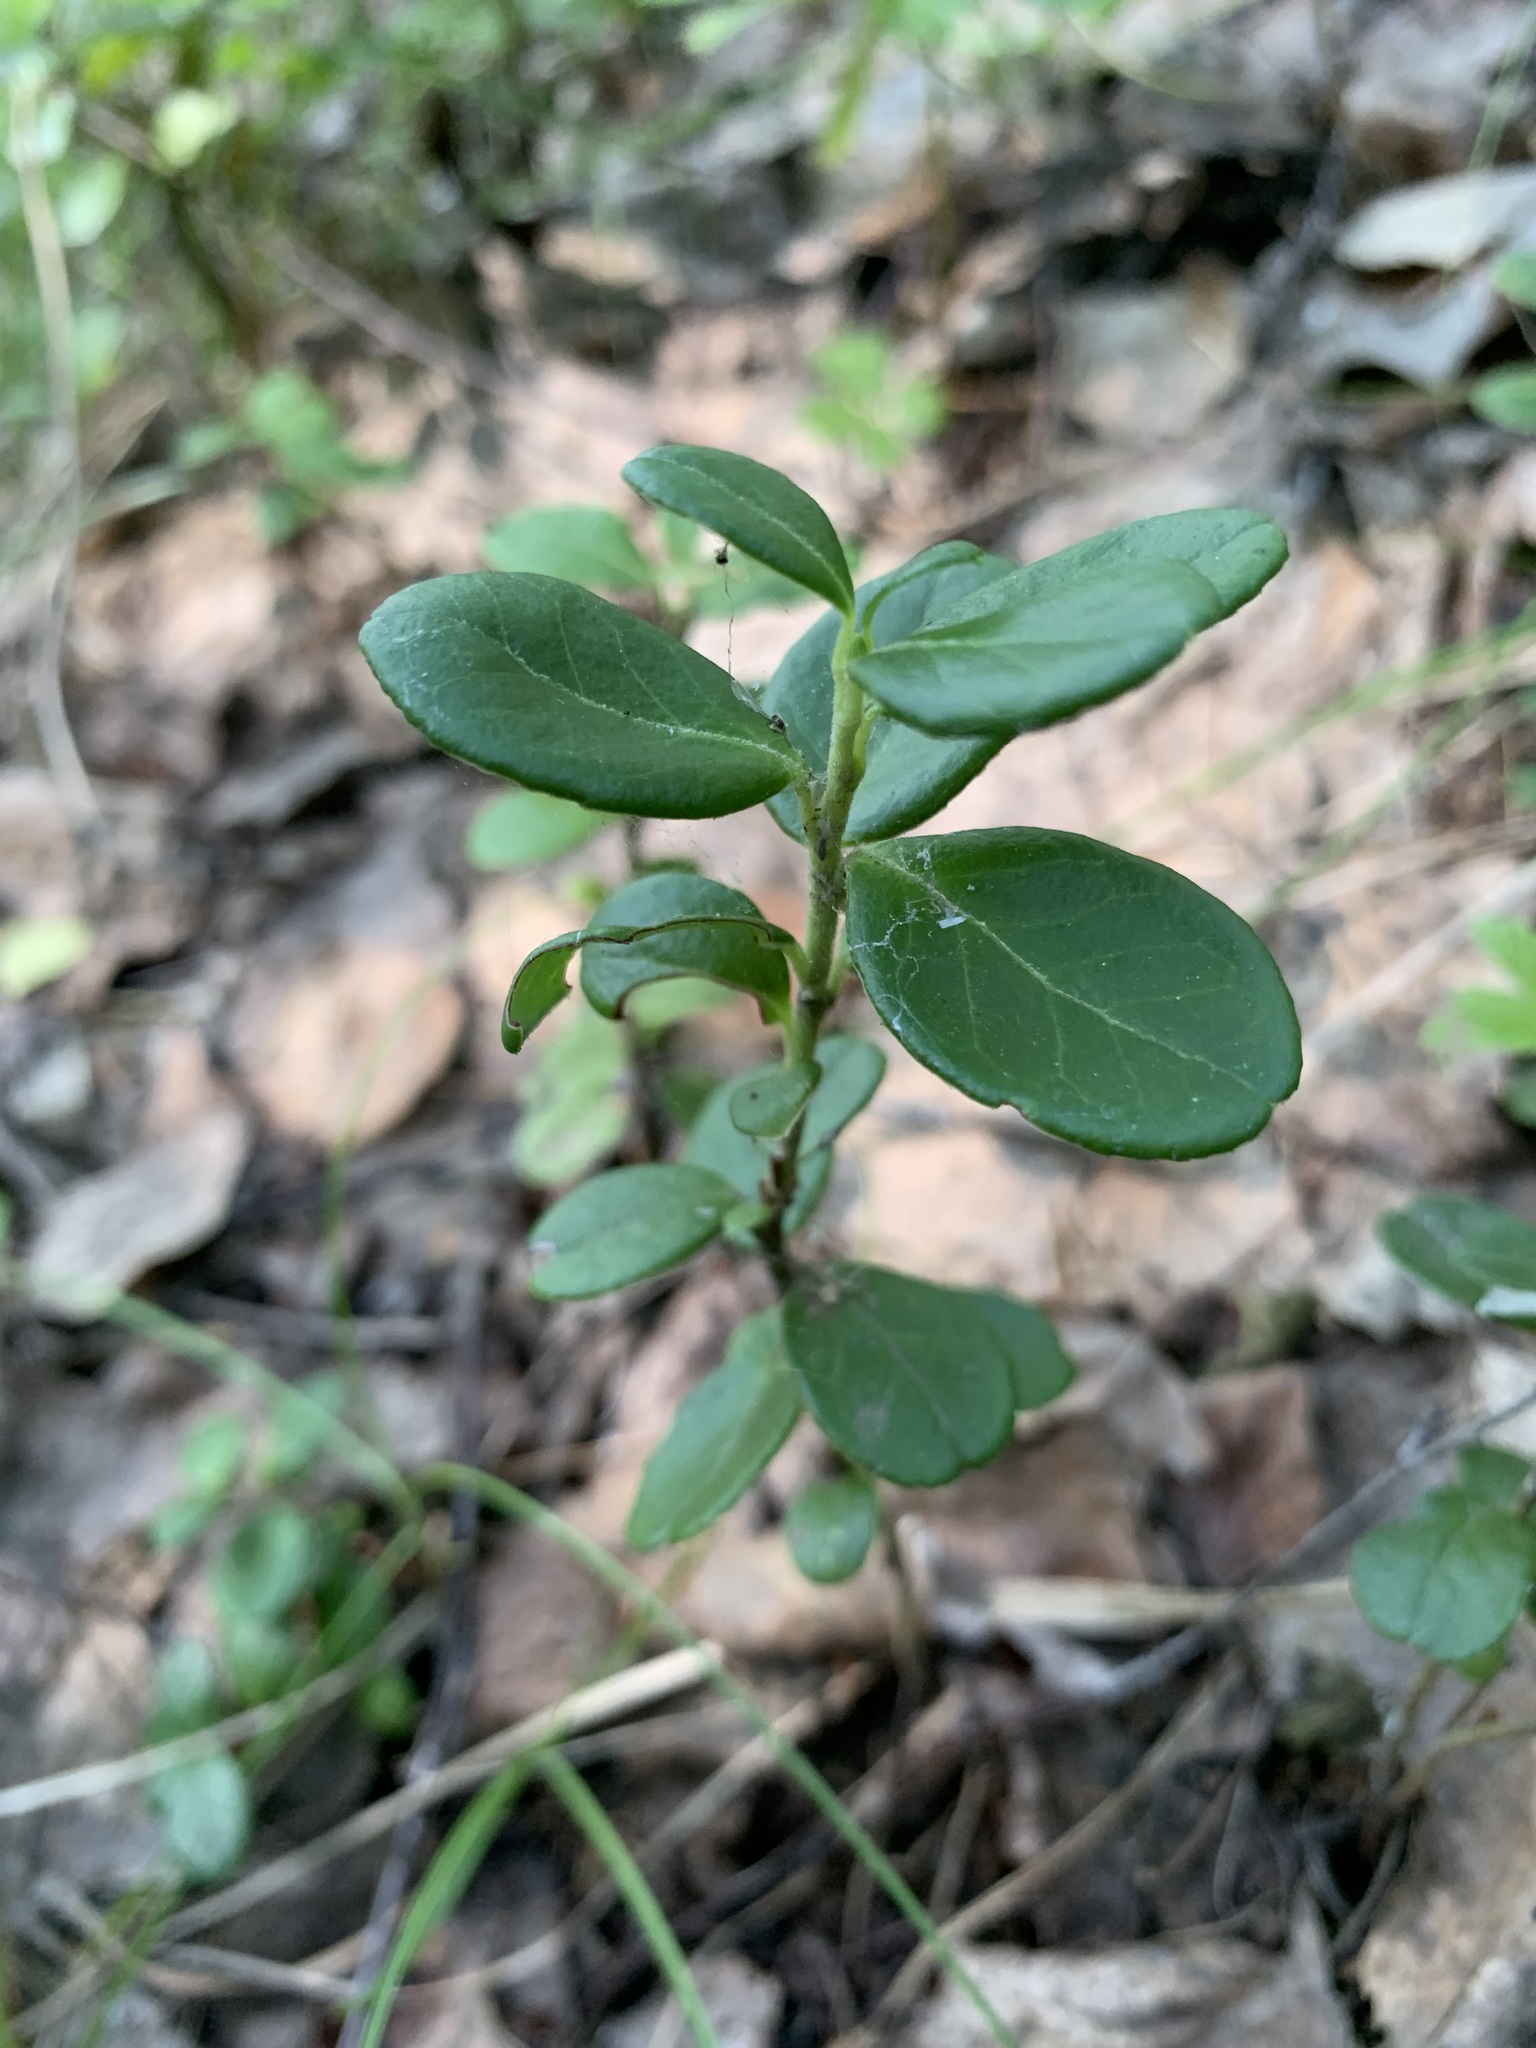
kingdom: Plantae
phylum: Tracheophyta
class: Magnoliopsida
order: Ericales
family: Ericaceae
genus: Vaccinium
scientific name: Vaccinium vitis-idaea
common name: Cowberry
